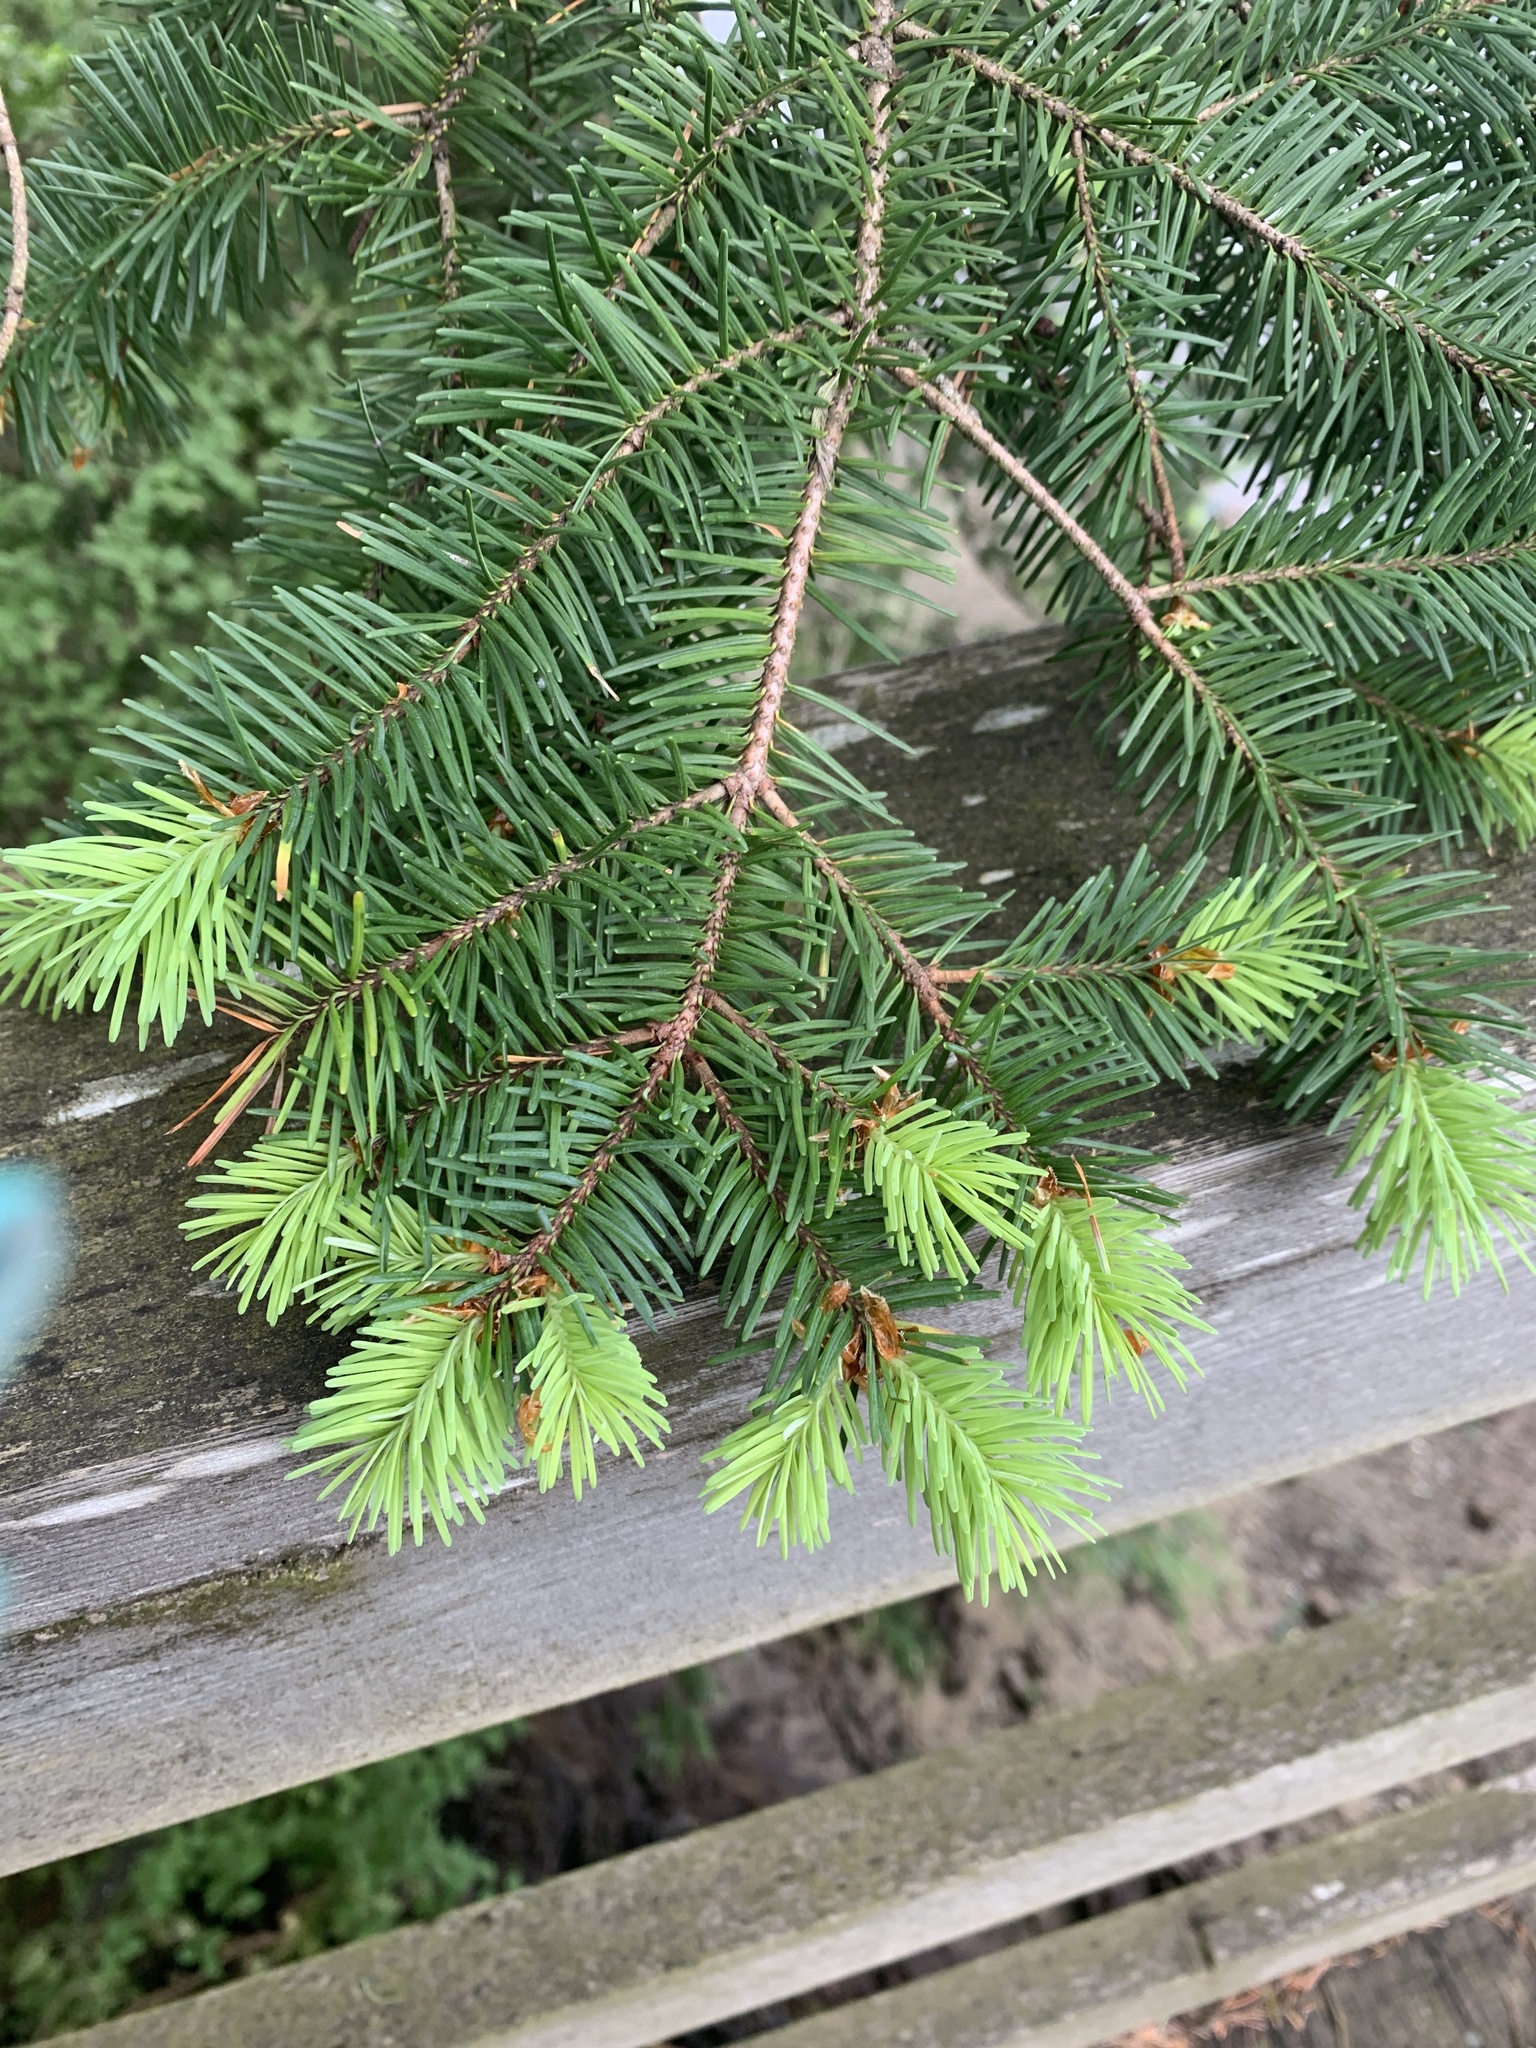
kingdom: Plantae
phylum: Tracheophyta
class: Pinopsida
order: Pinales
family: Pinaceae
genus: Pseudotsuga
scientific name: Pseudotsuga menziesii
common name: Douglas fir
